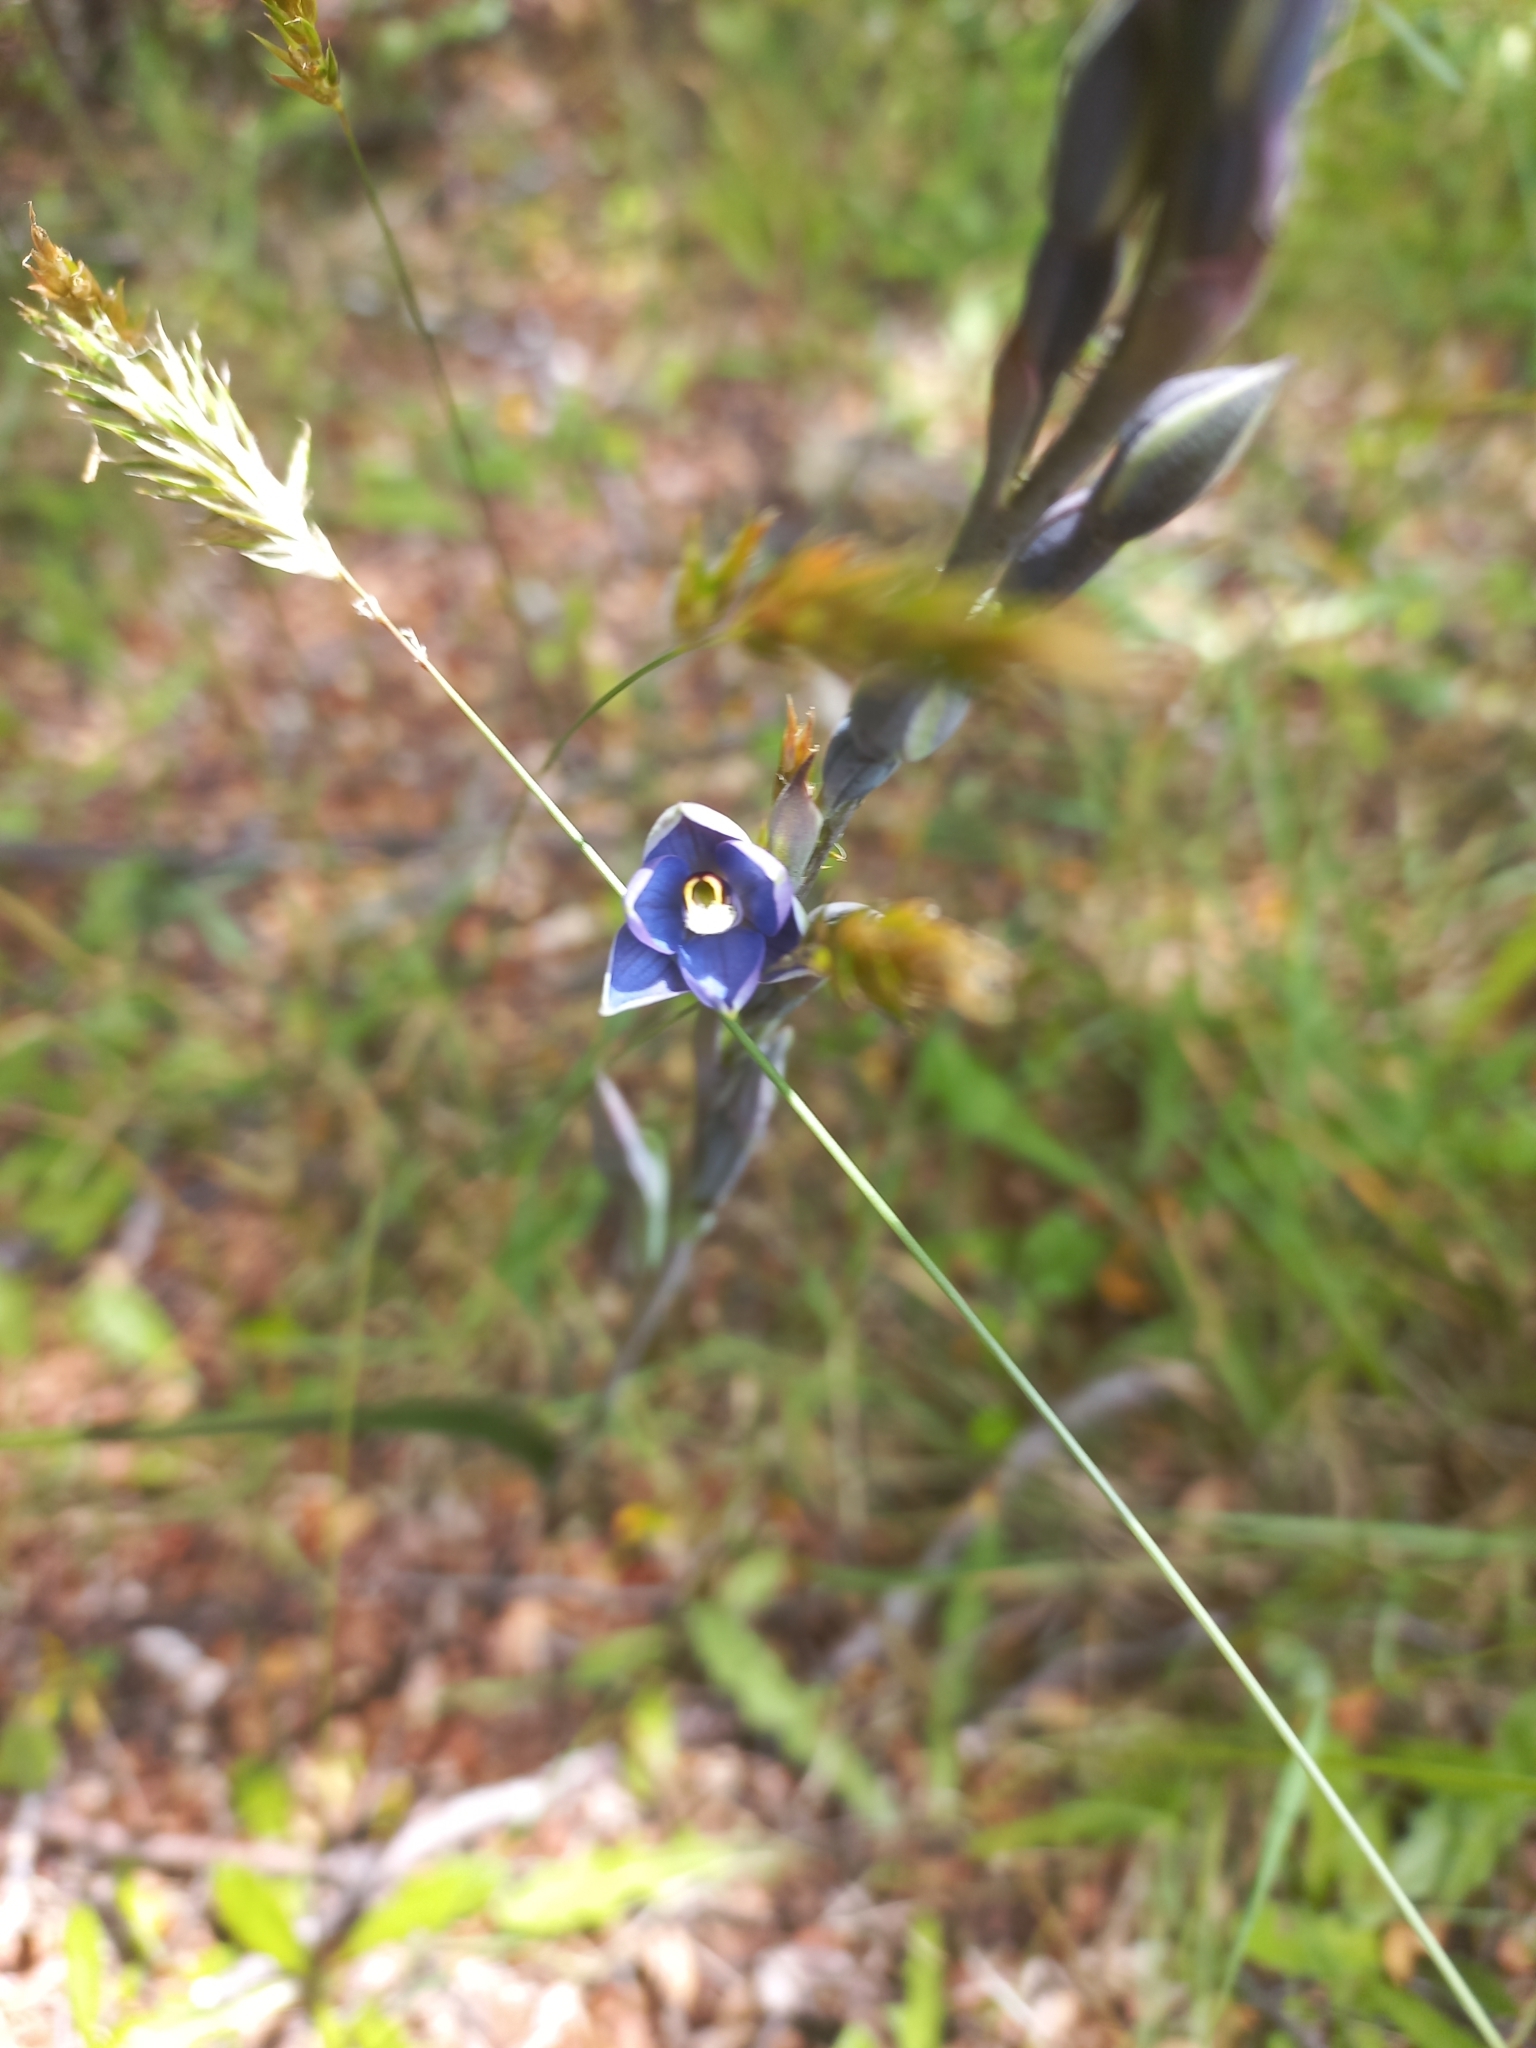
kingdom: Plantae
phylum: Tracheophyta
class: Liliopsida
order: Asparagales
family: Orchidaceae
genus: Thelymitra
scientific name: Thelymitra hatchii
